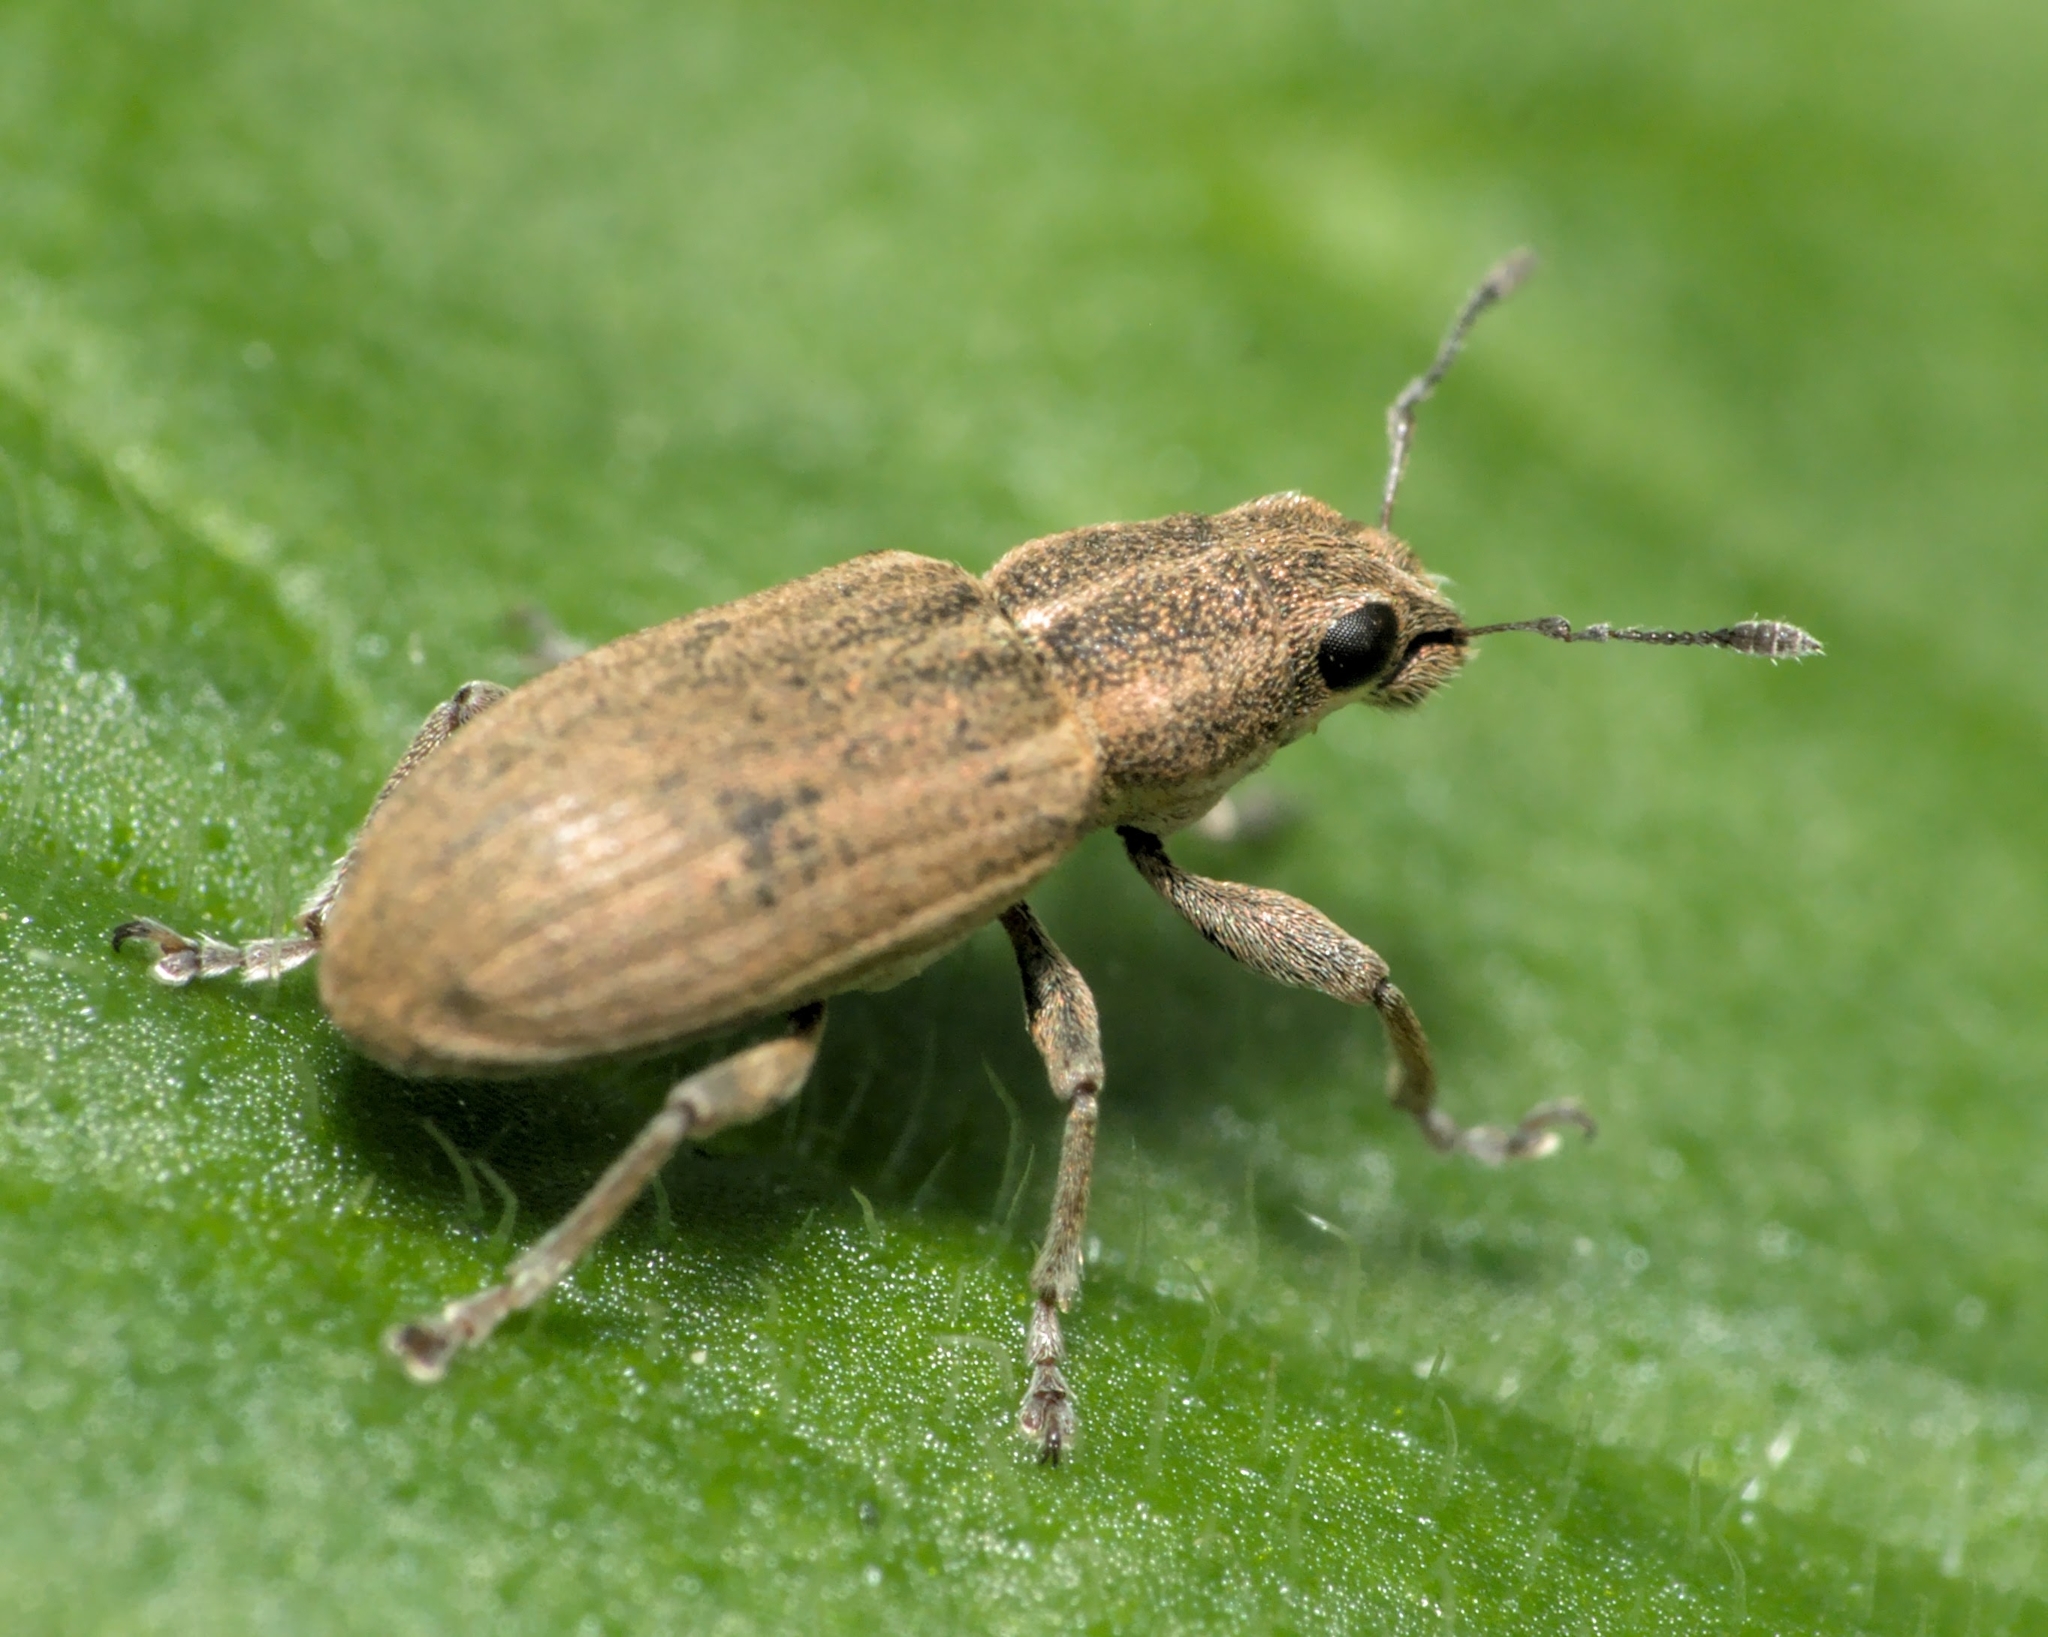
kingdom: Animalia
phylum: Arthropoda
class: Insecta
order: Coleoptera
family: Curculionidae
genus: Sitona
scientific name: Sitona lineatus
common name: Weevil
